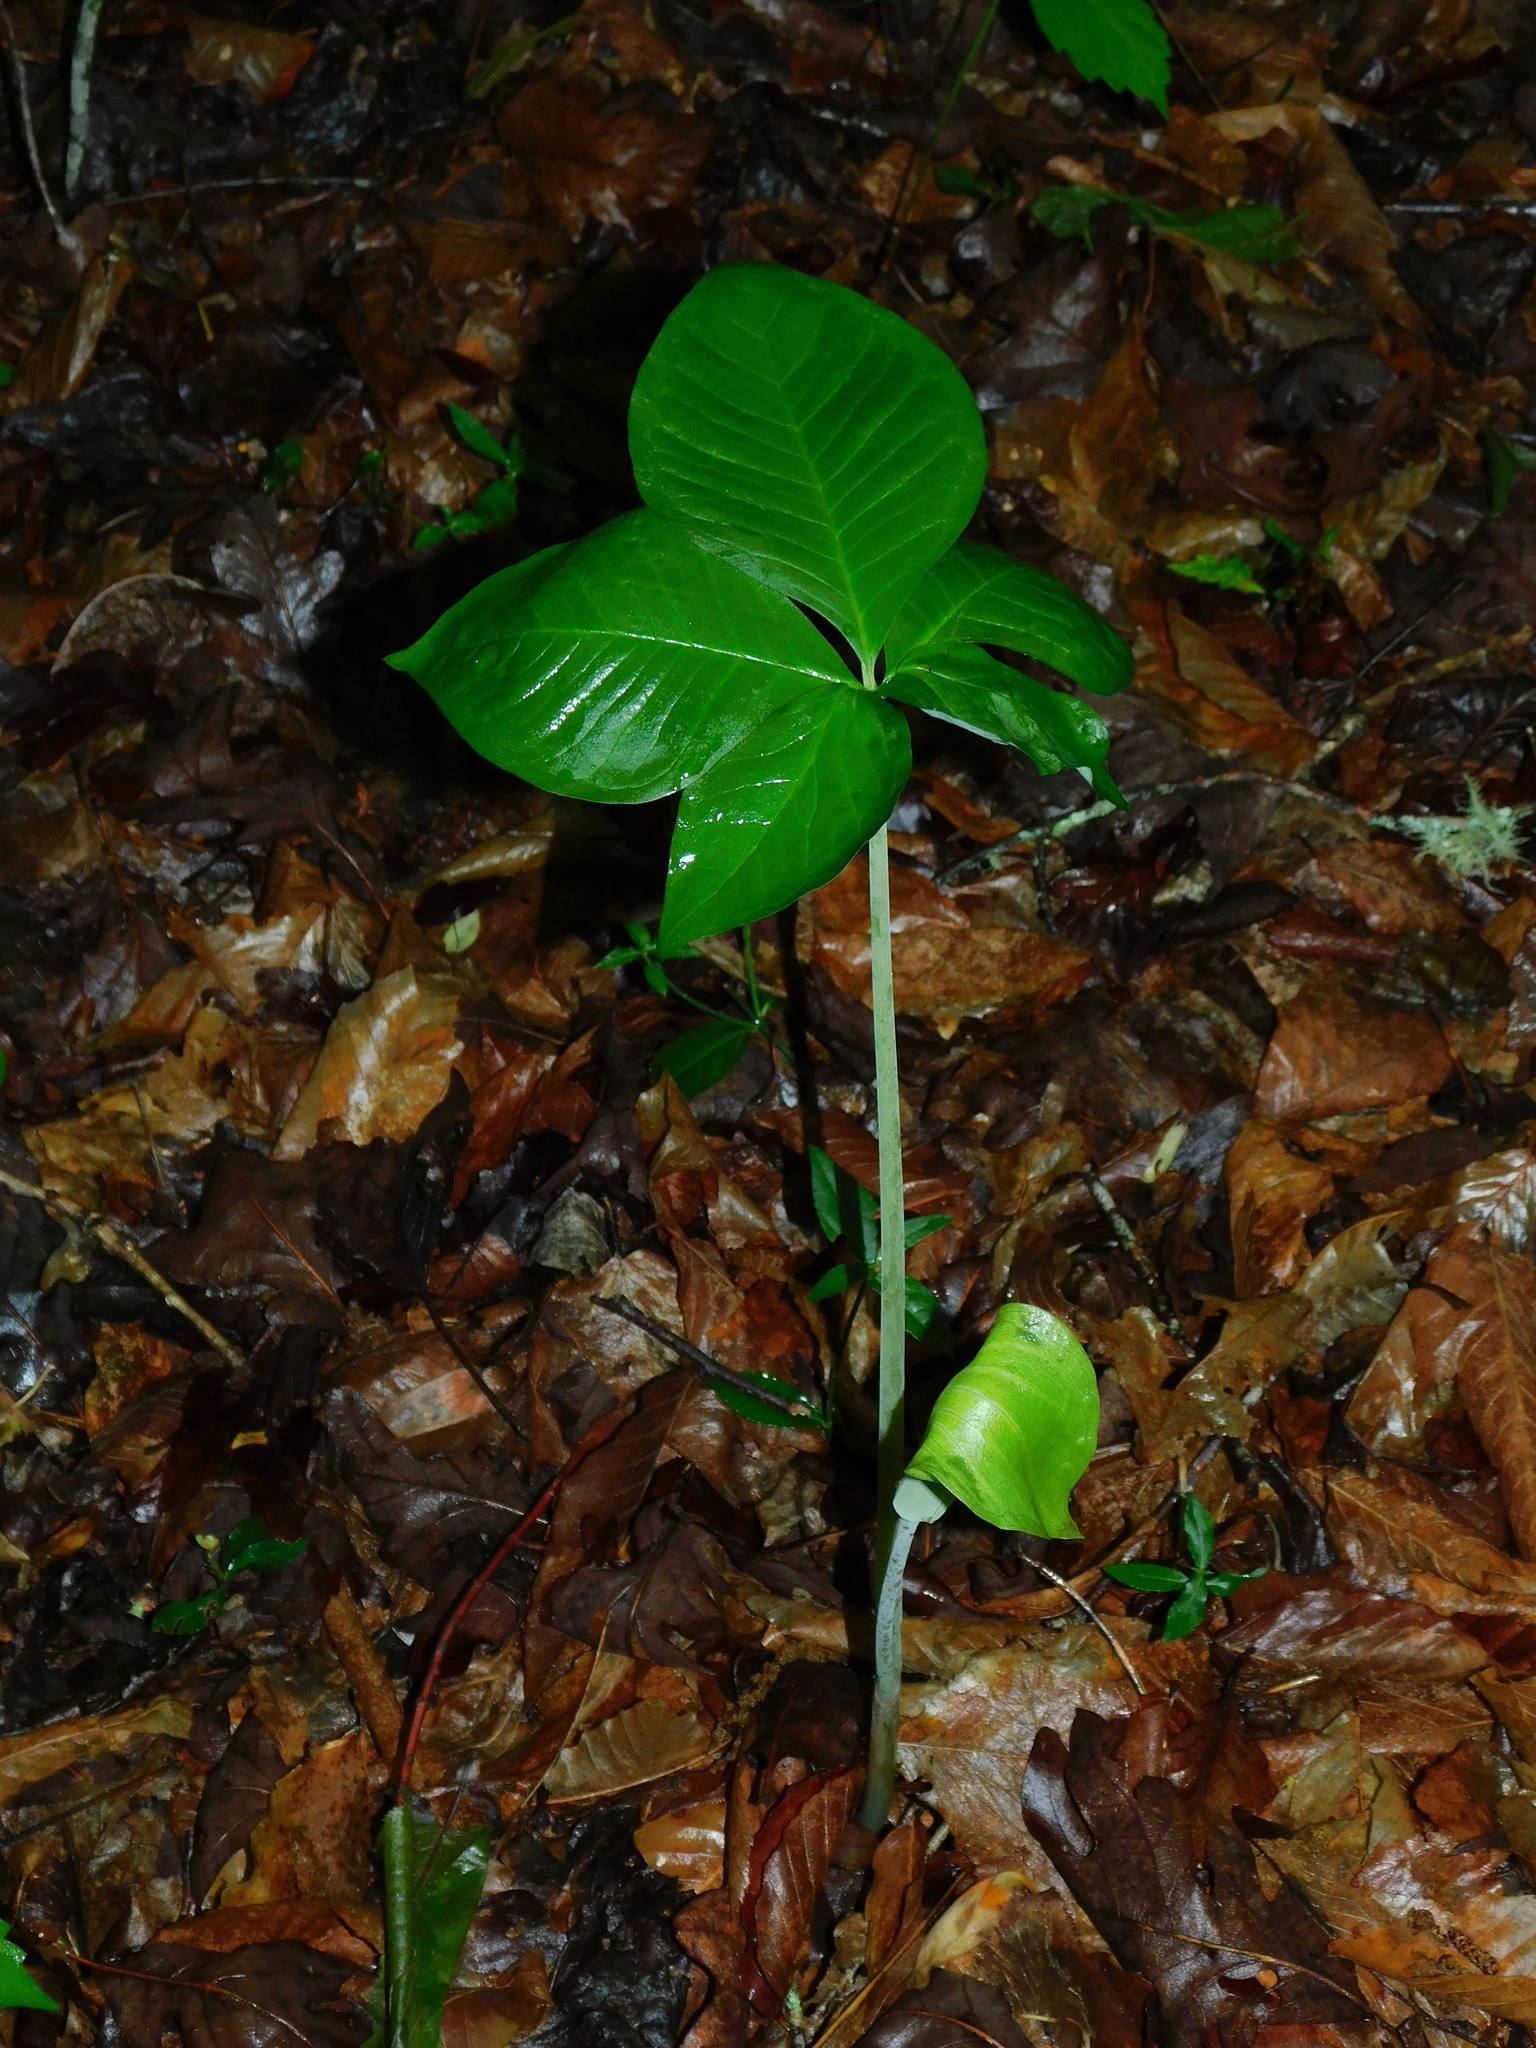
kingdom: Plantae
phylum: Tracheophyta
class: Liliopsida
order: Alismatales
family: Araceae
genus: Arisaema
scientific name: Arisaema quinatum
